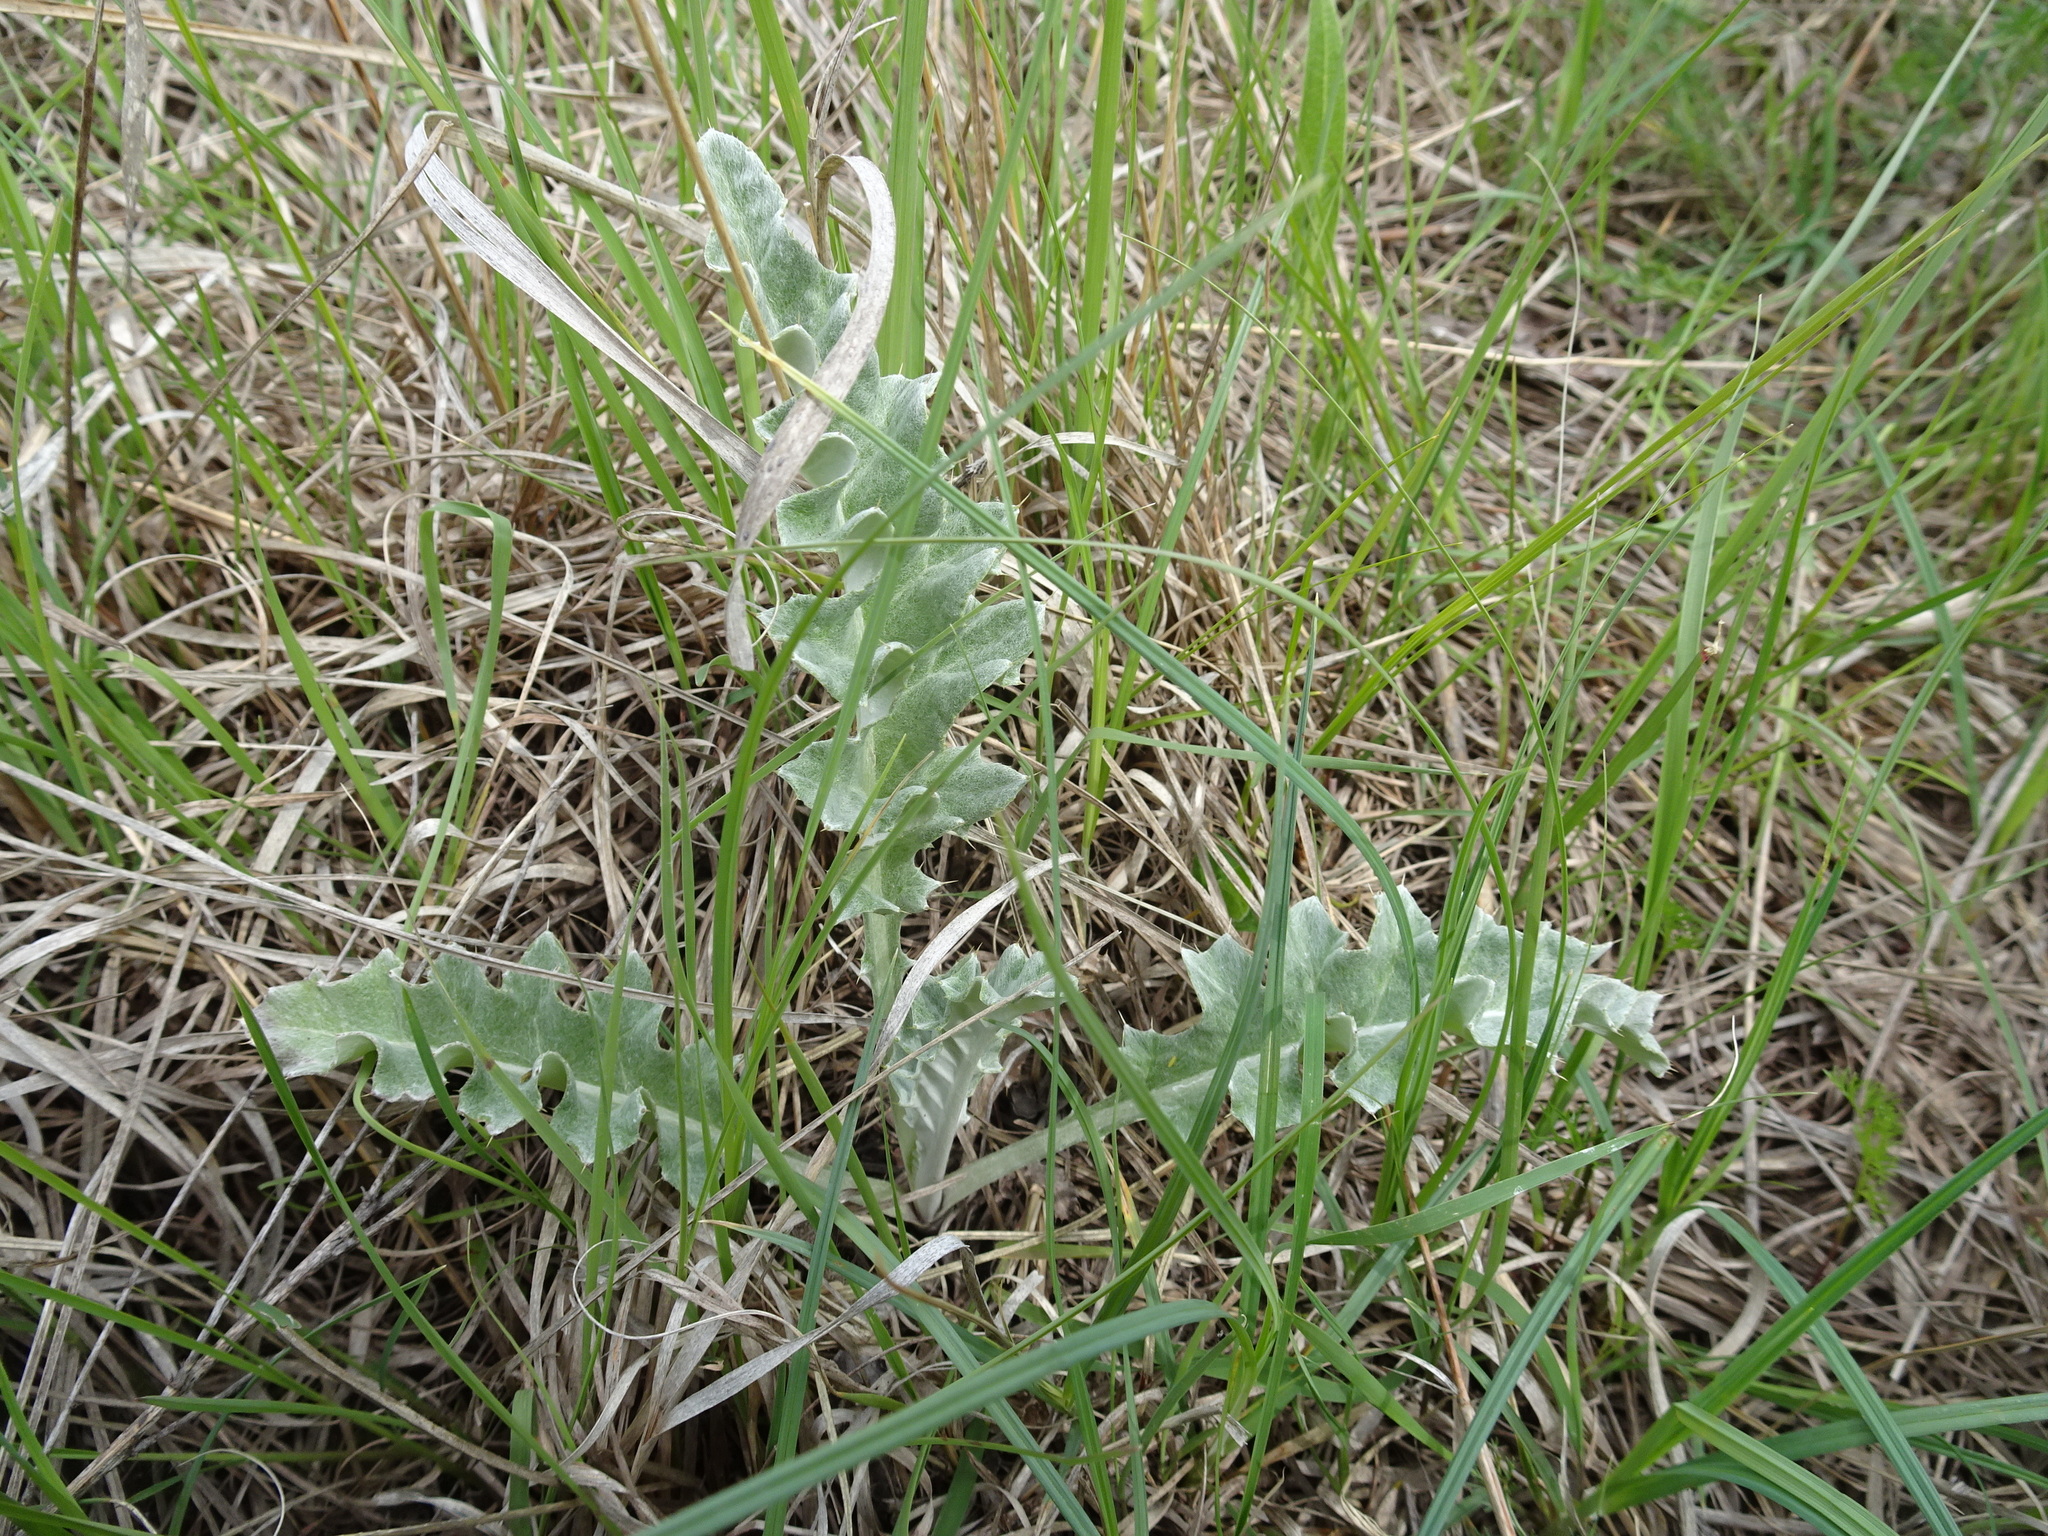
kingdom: Plantae
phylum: Tracheophyta
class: Magnoliopsida
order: Asterales
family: Asteraceae
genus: Cirsium
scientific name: Cirsium undulatum
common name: Pasture thistle
